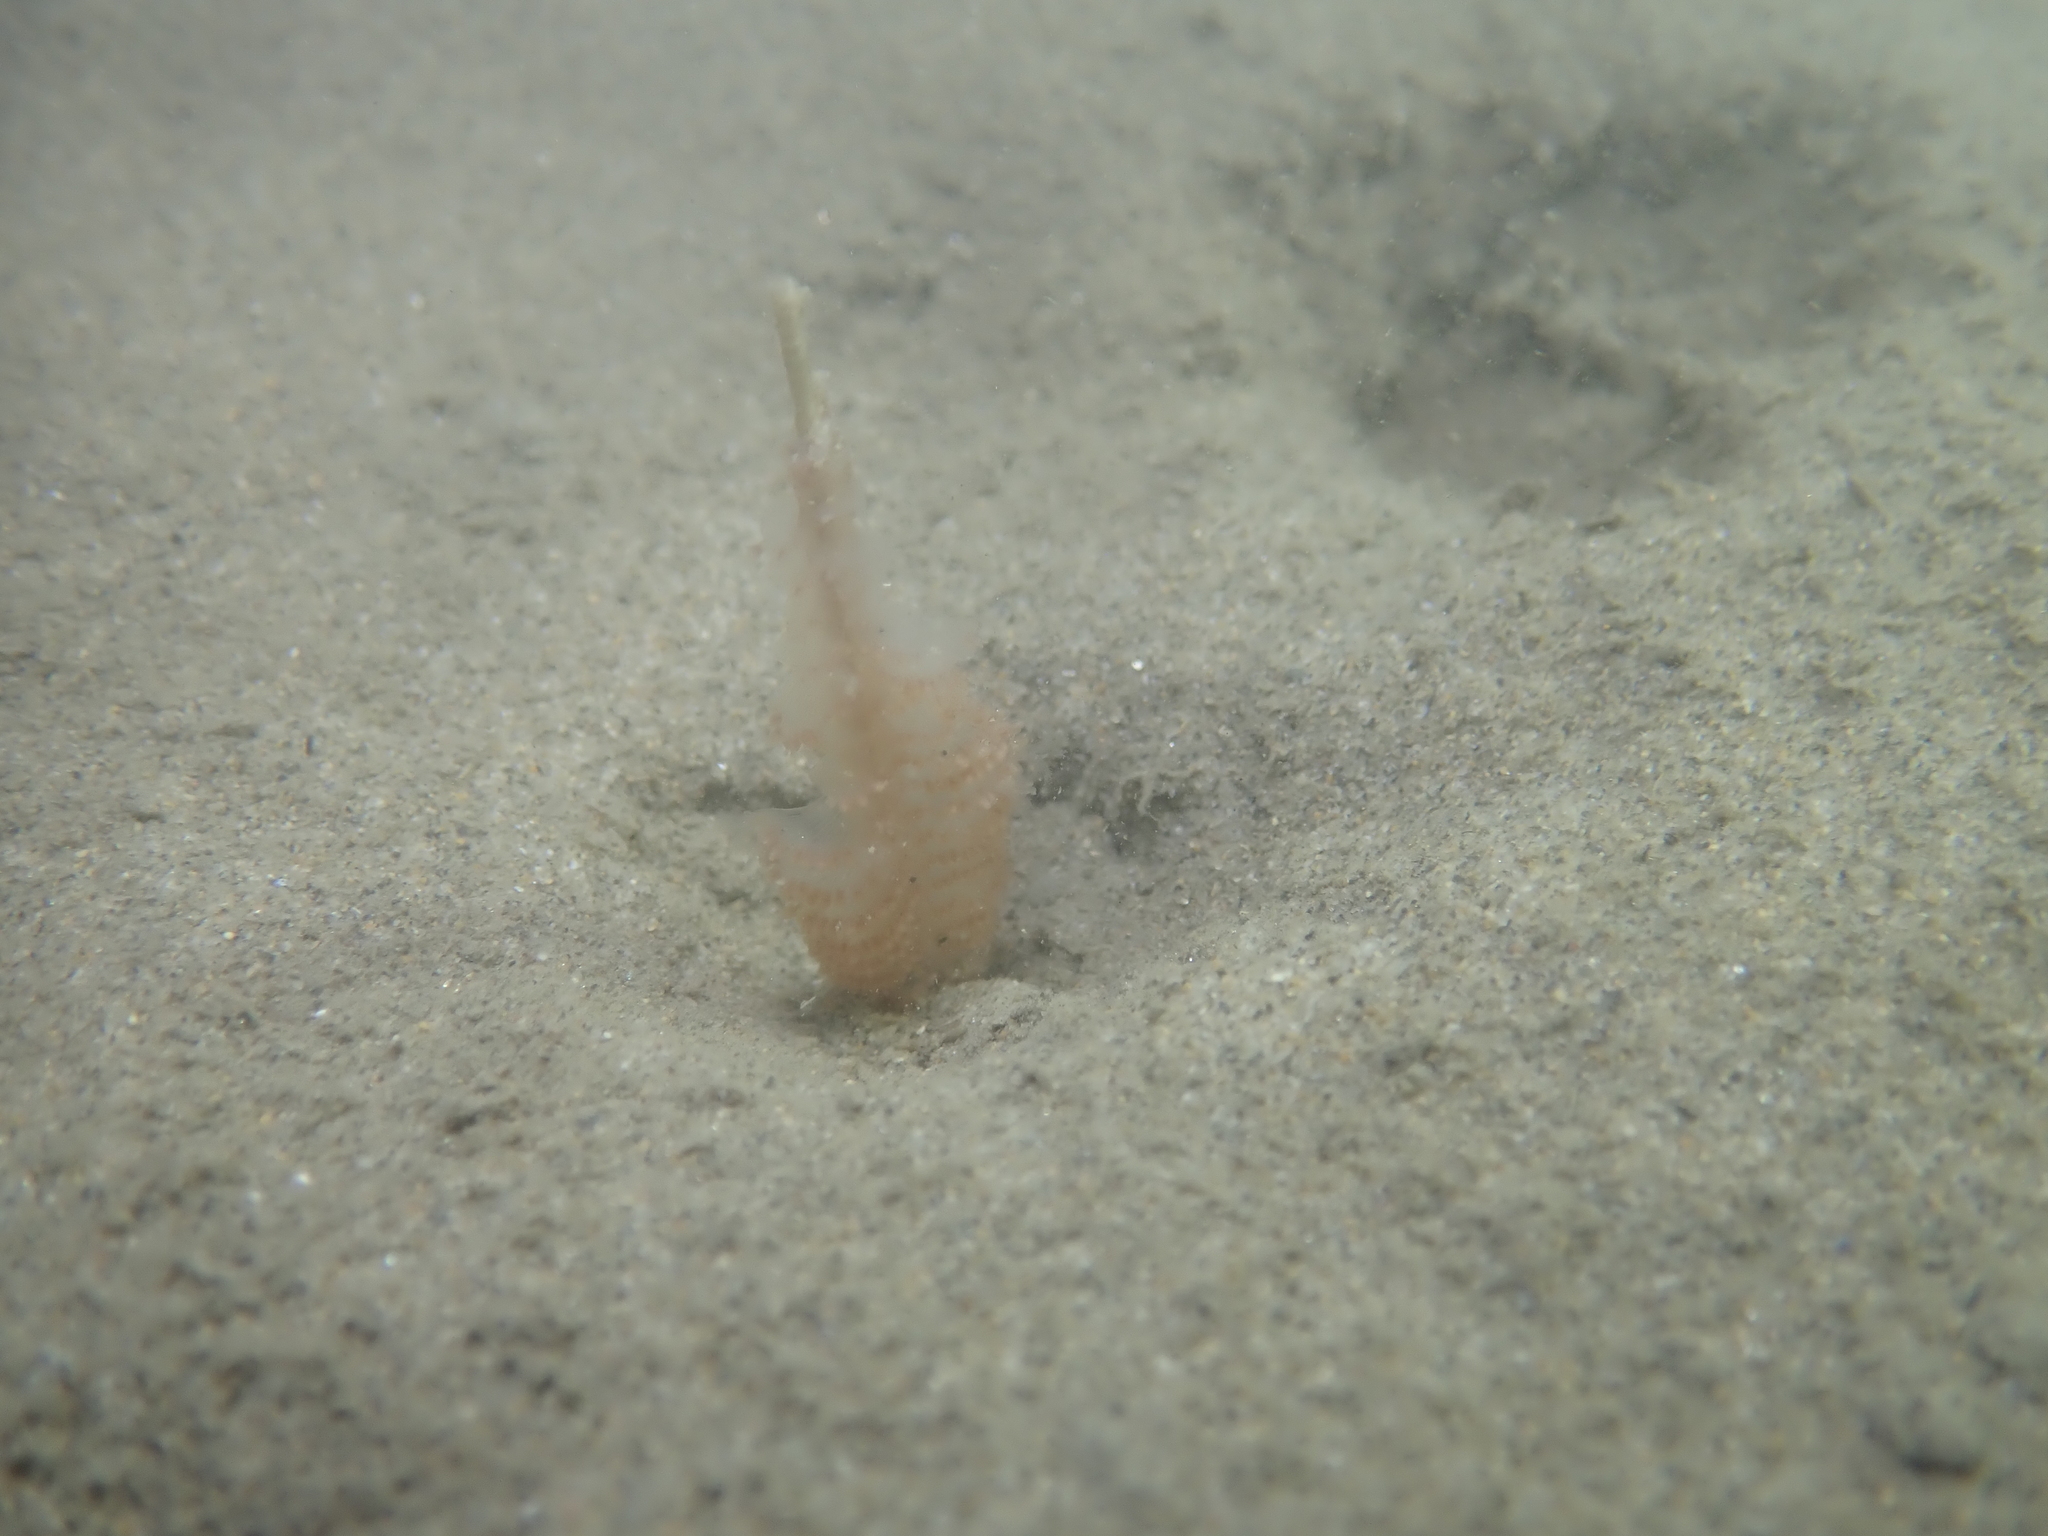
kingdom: Animalia
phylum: Cnidaria
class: Anthozoa
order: Scleralcyonacea
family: Virgulariidae
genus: Virgularia
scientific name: Virgularia mirabilis
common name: Slender sea pen
